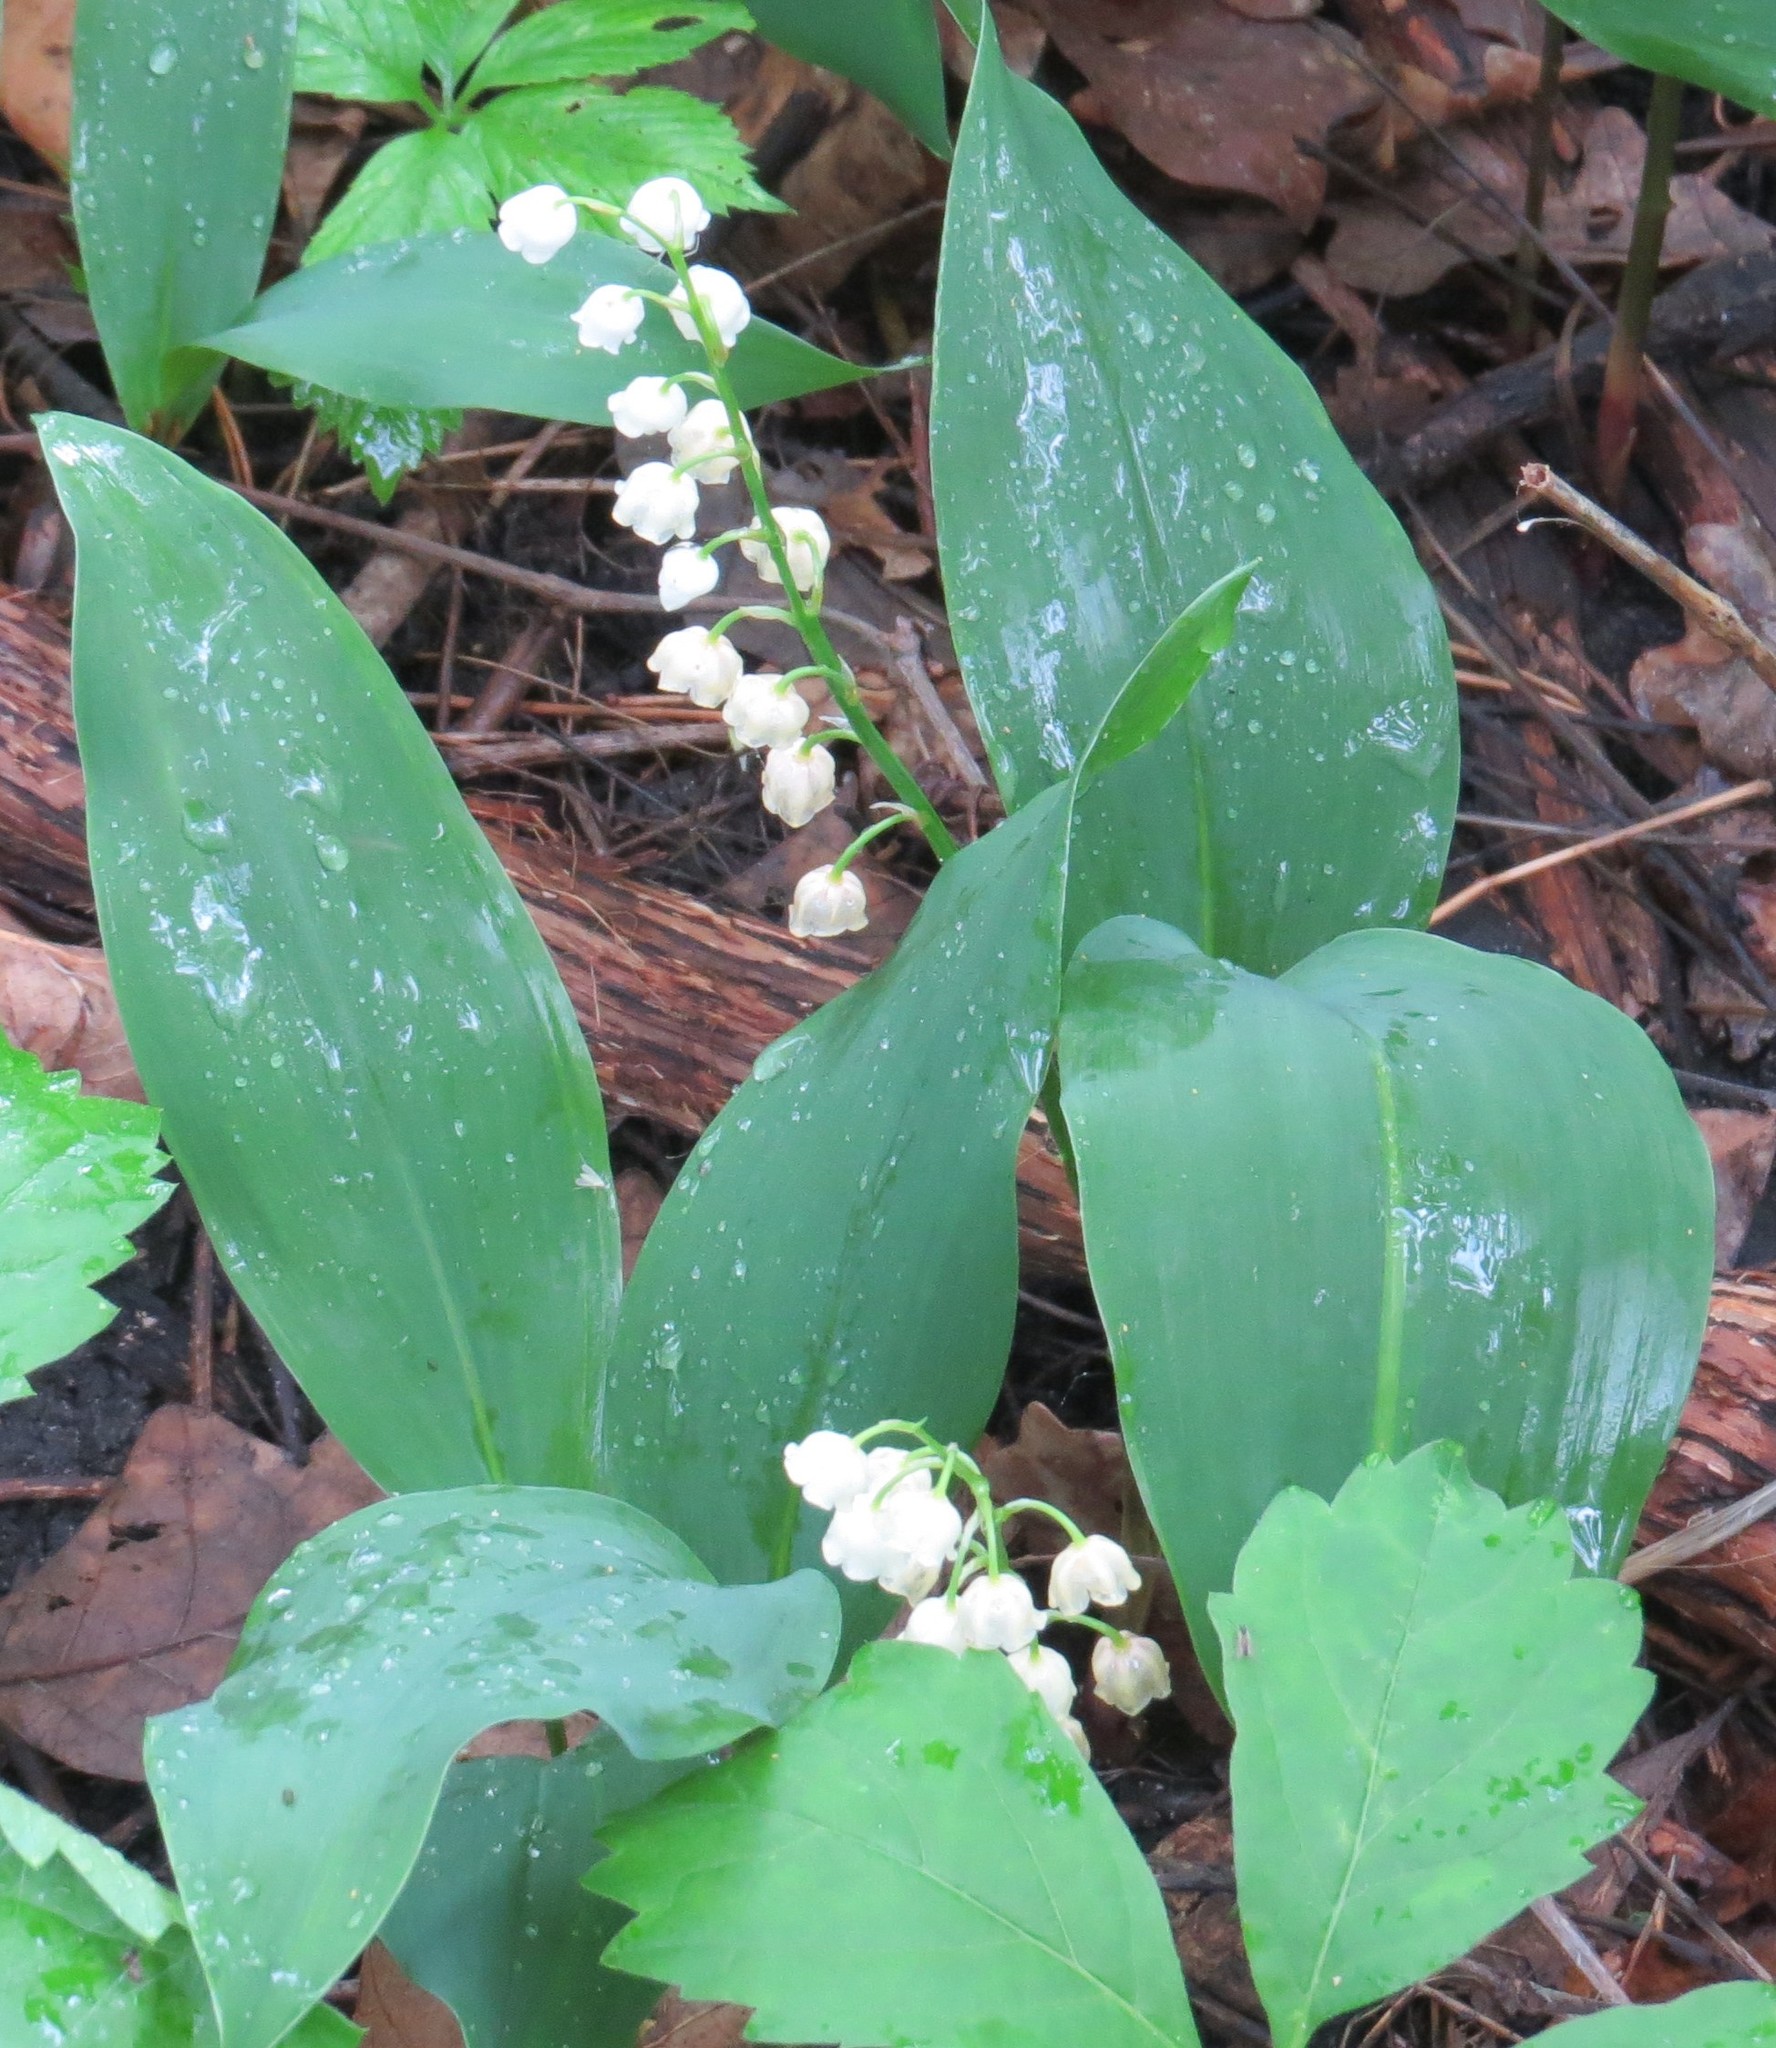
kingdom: Plantae
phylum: Tracheophyta
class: Liliopsida
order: Asparagales
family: Asparagaceae
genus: Convallaria
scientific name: Convallaria majalis
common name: Lily-of-the-valley
